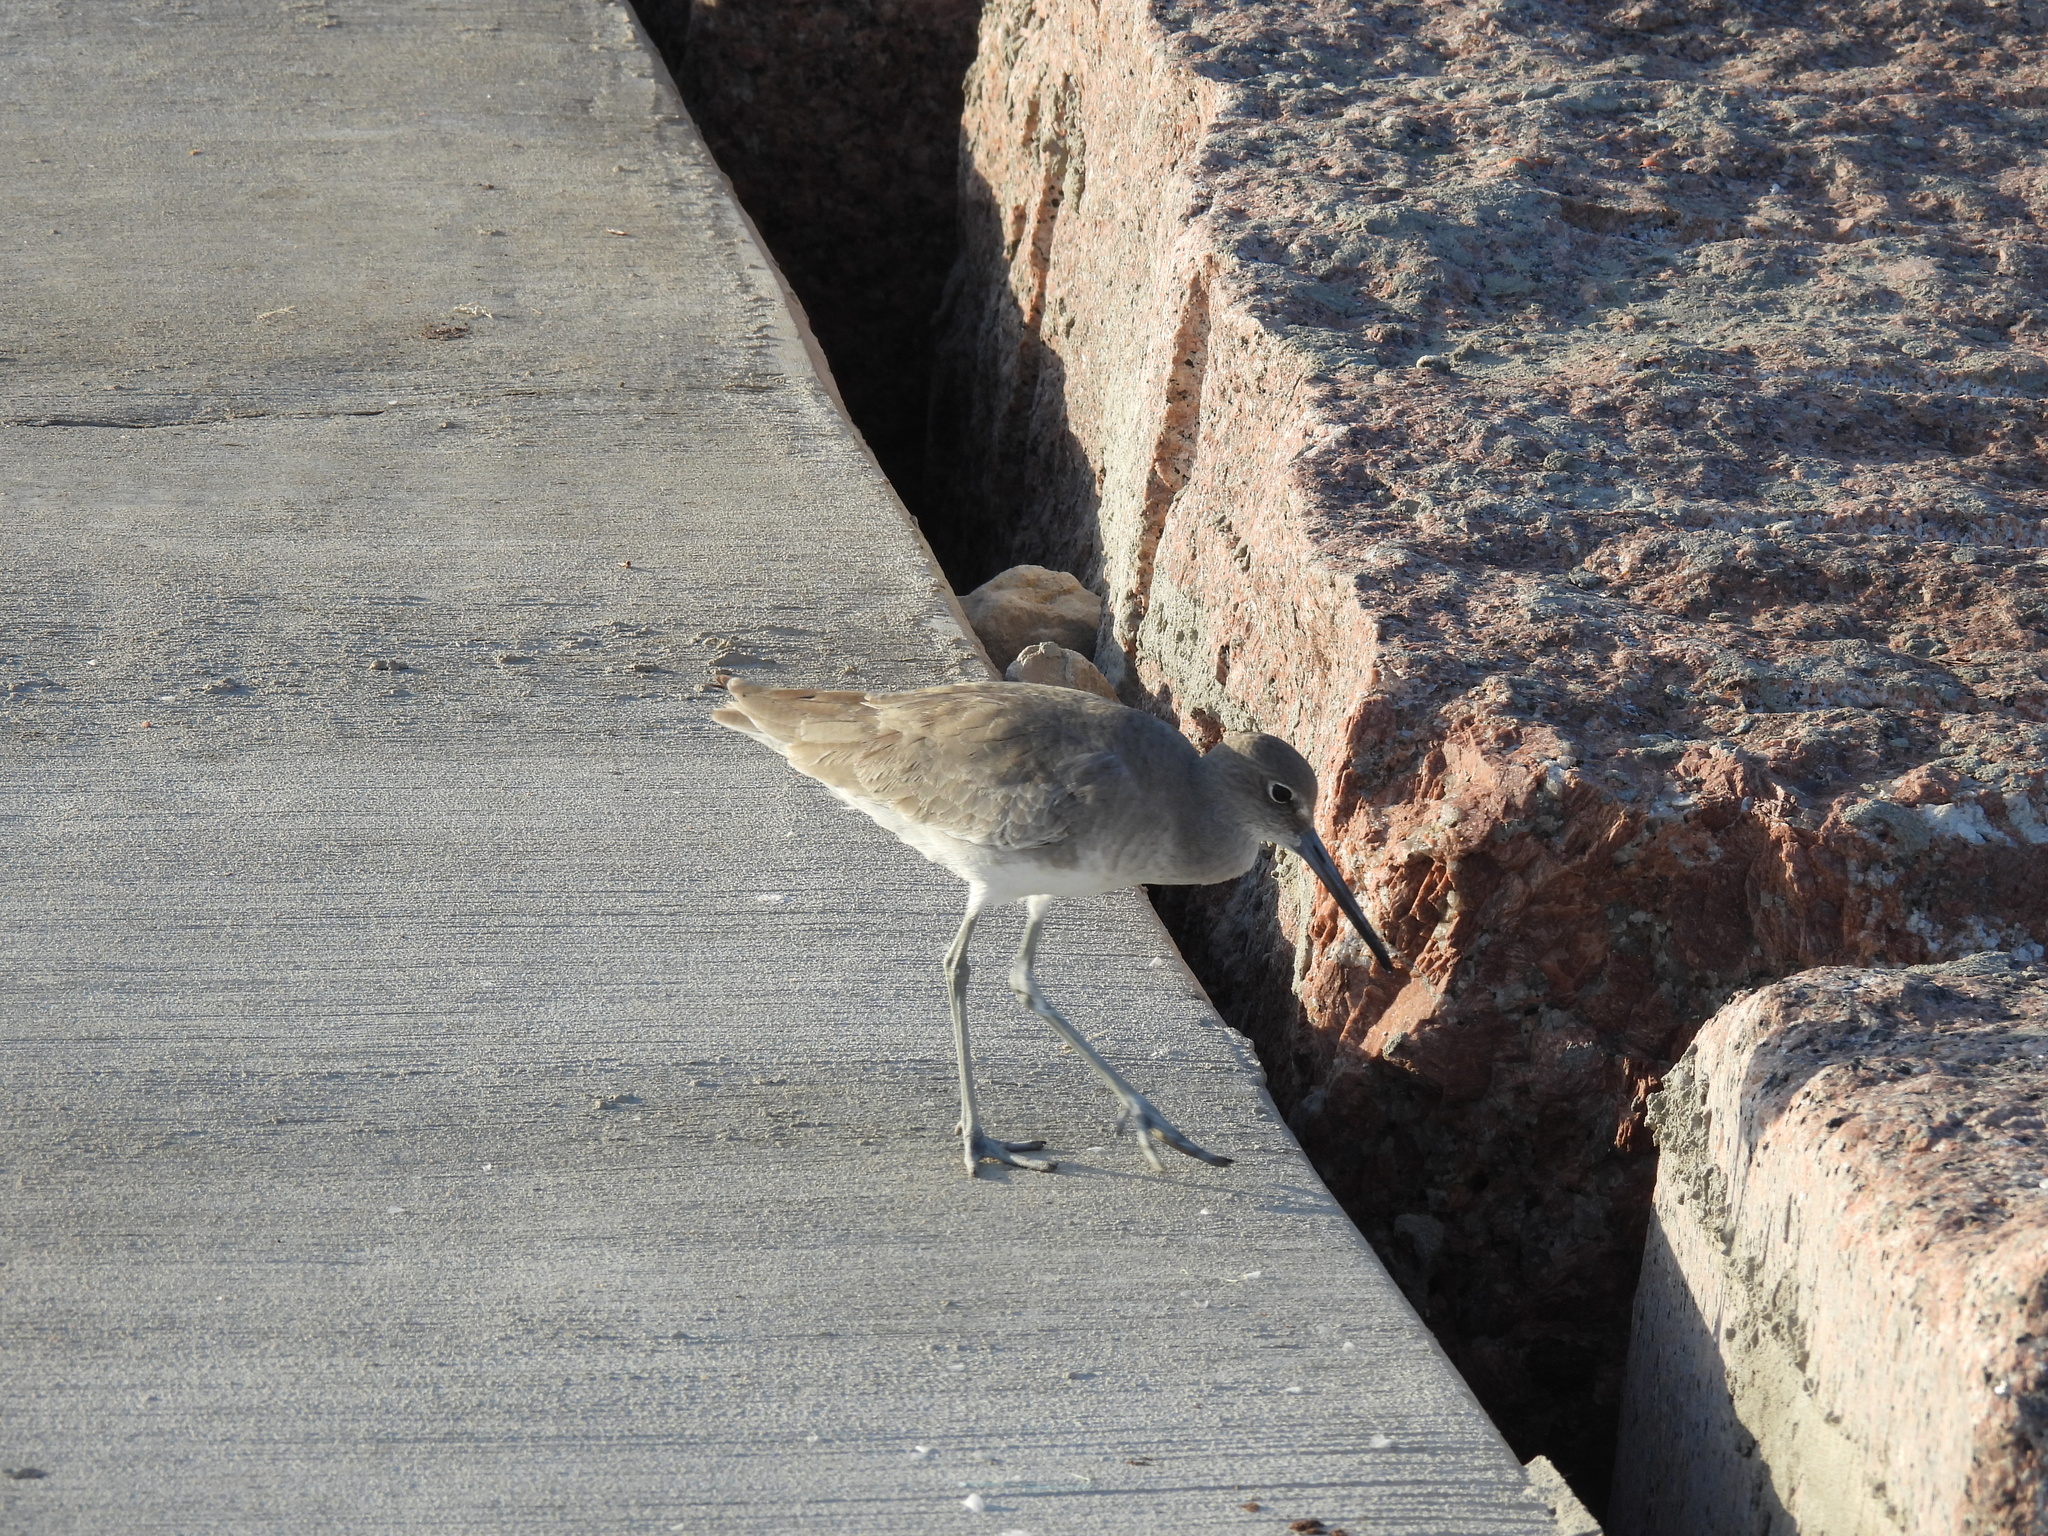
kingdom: Animalia
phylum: Chordata
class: Aves
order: Charadriiformes
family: Scolopacidae
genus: Tringa
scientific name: Tringa semipalmata
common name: Willet
